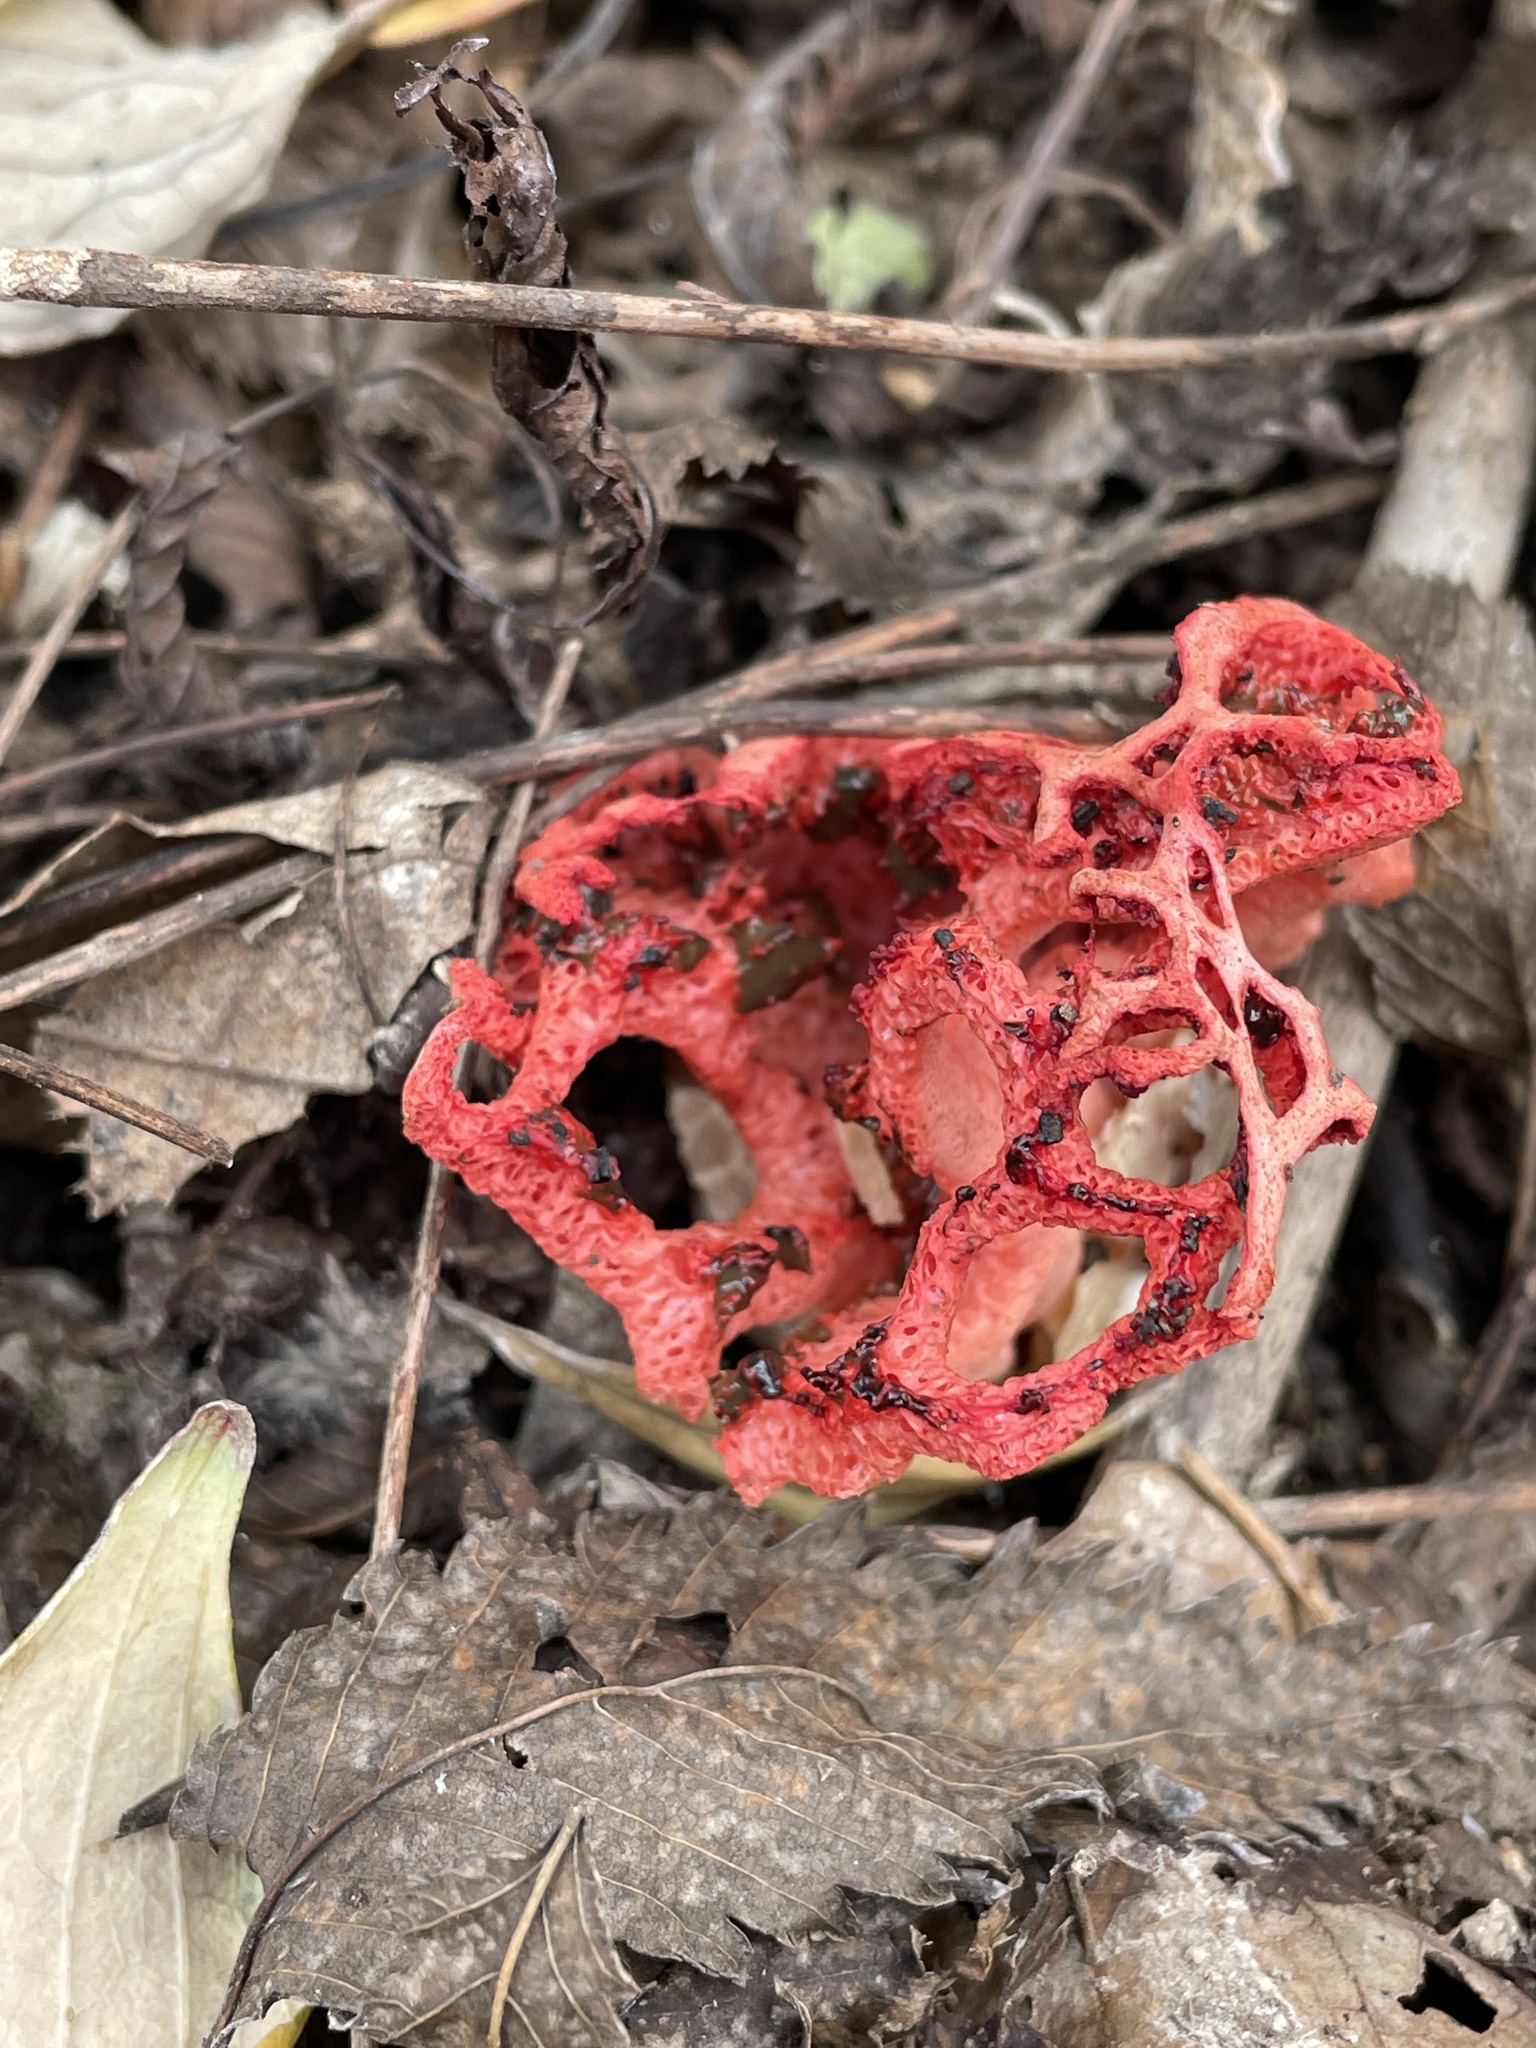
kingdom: Fungi
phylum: Basidiomycota
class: Agaricomycetes
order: Phallales
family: Phallaceae
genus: Clathrus
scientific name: Clathrus ruber
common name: Red cage
